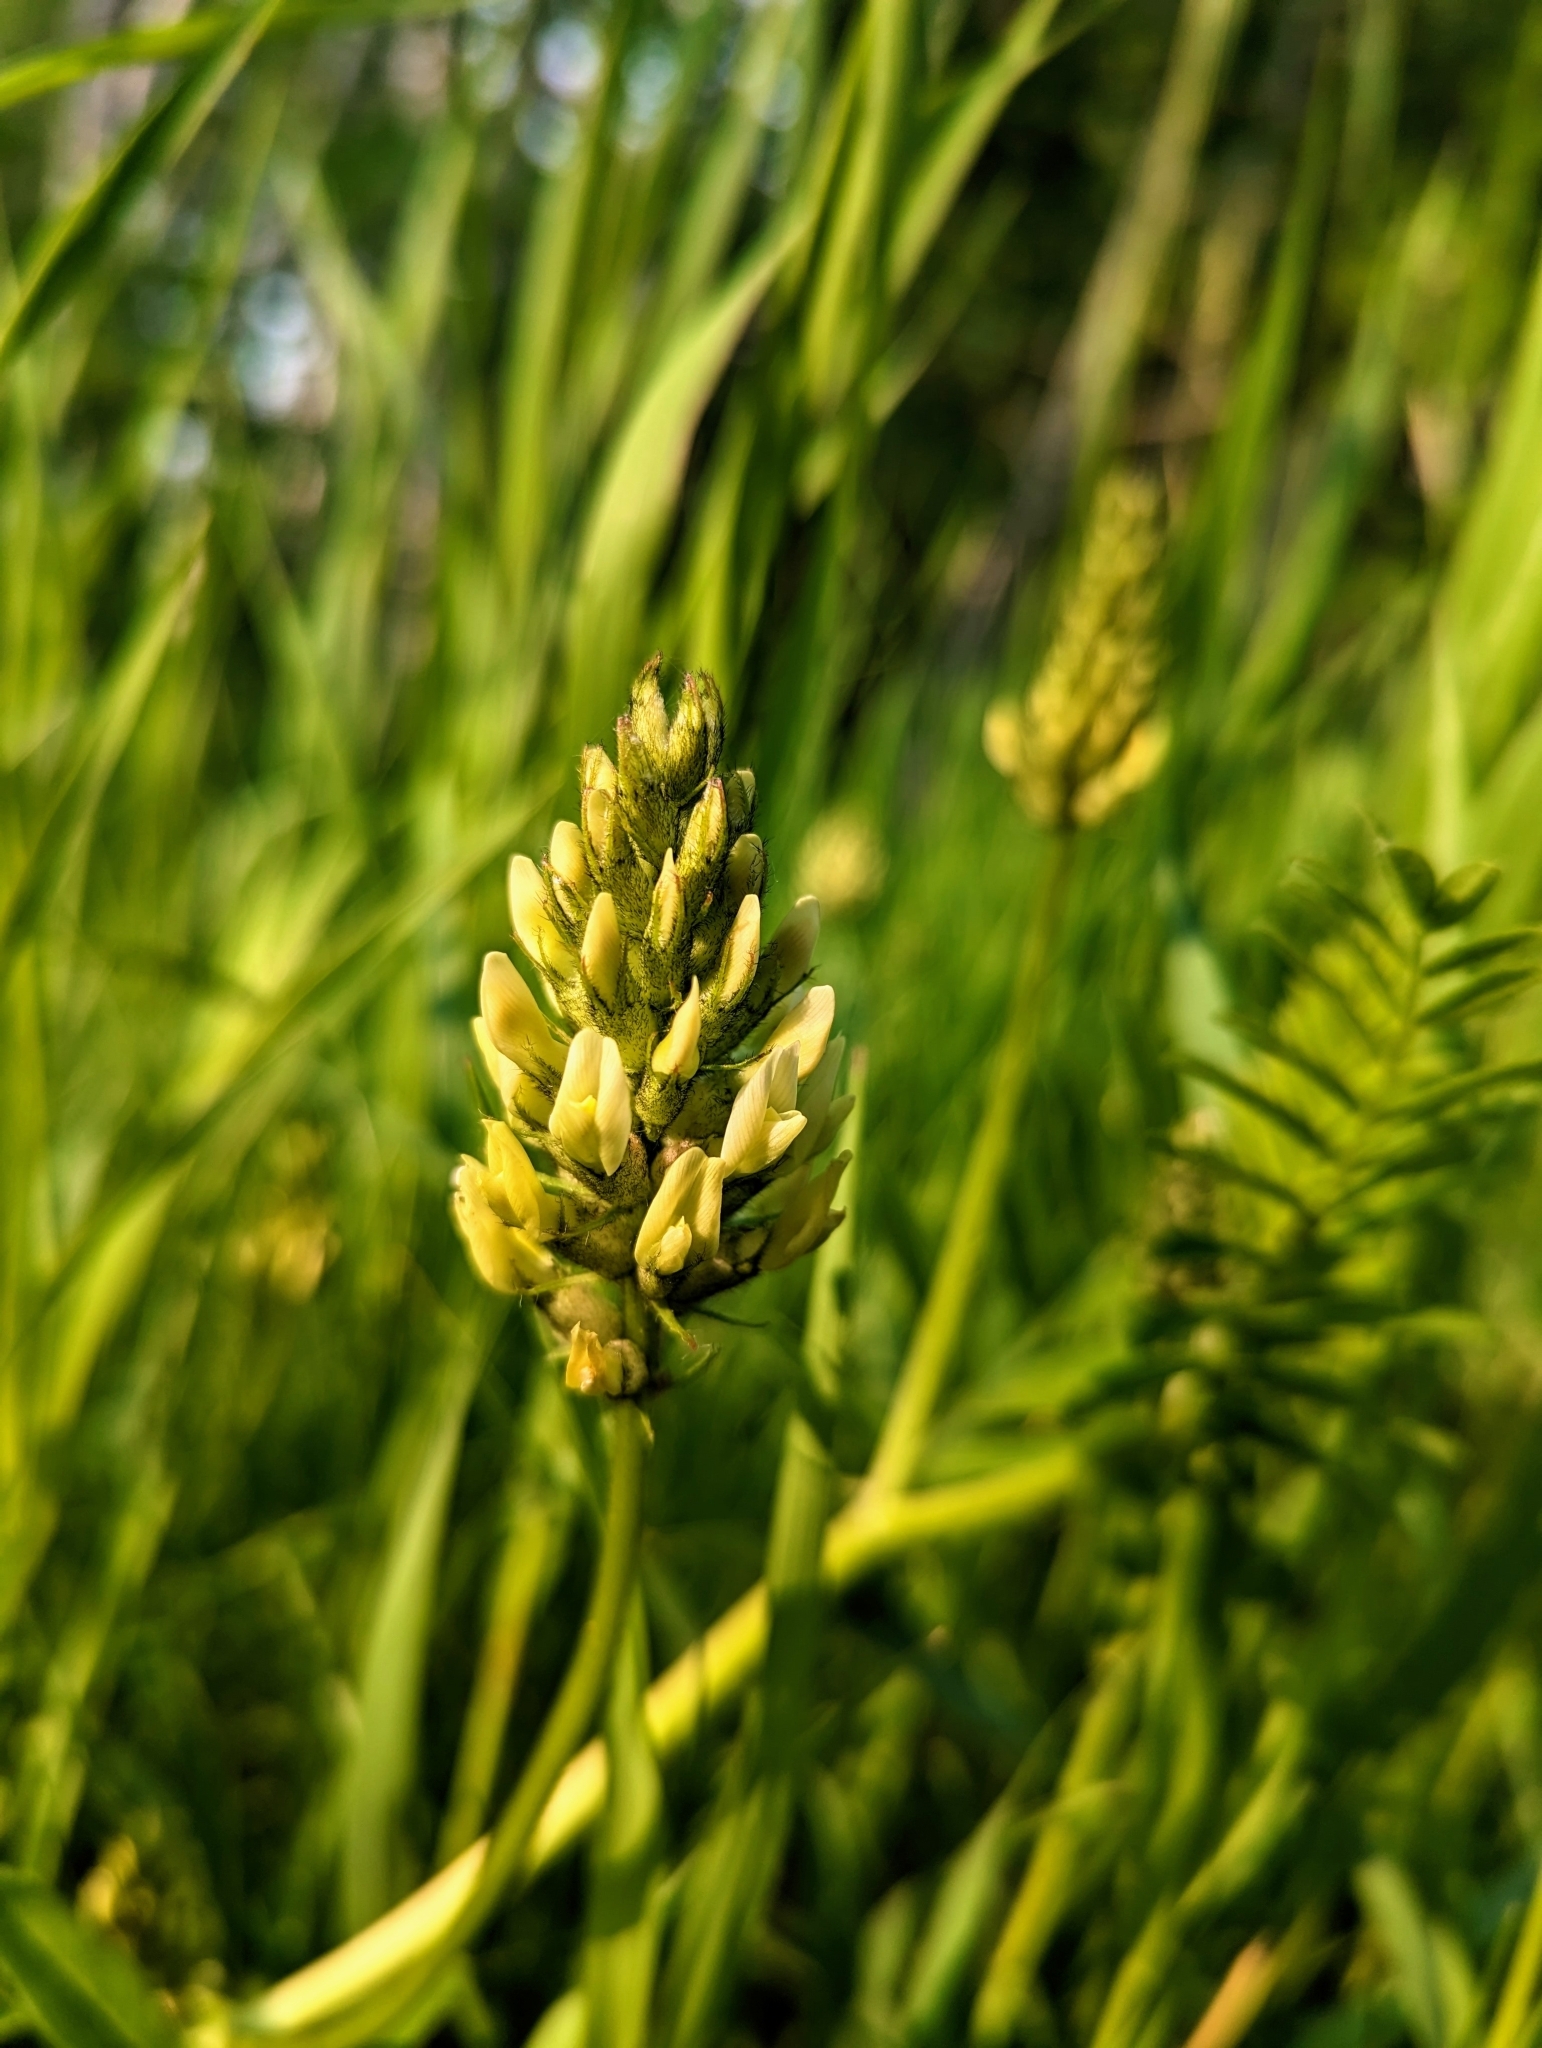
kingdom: Plantae
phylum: Tracheophyta
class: Magnoliopsida
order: Fabales
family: Fabaceae
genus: Astragalus
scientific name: Astragalus cicer
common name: Chick-pea milk-vetch
